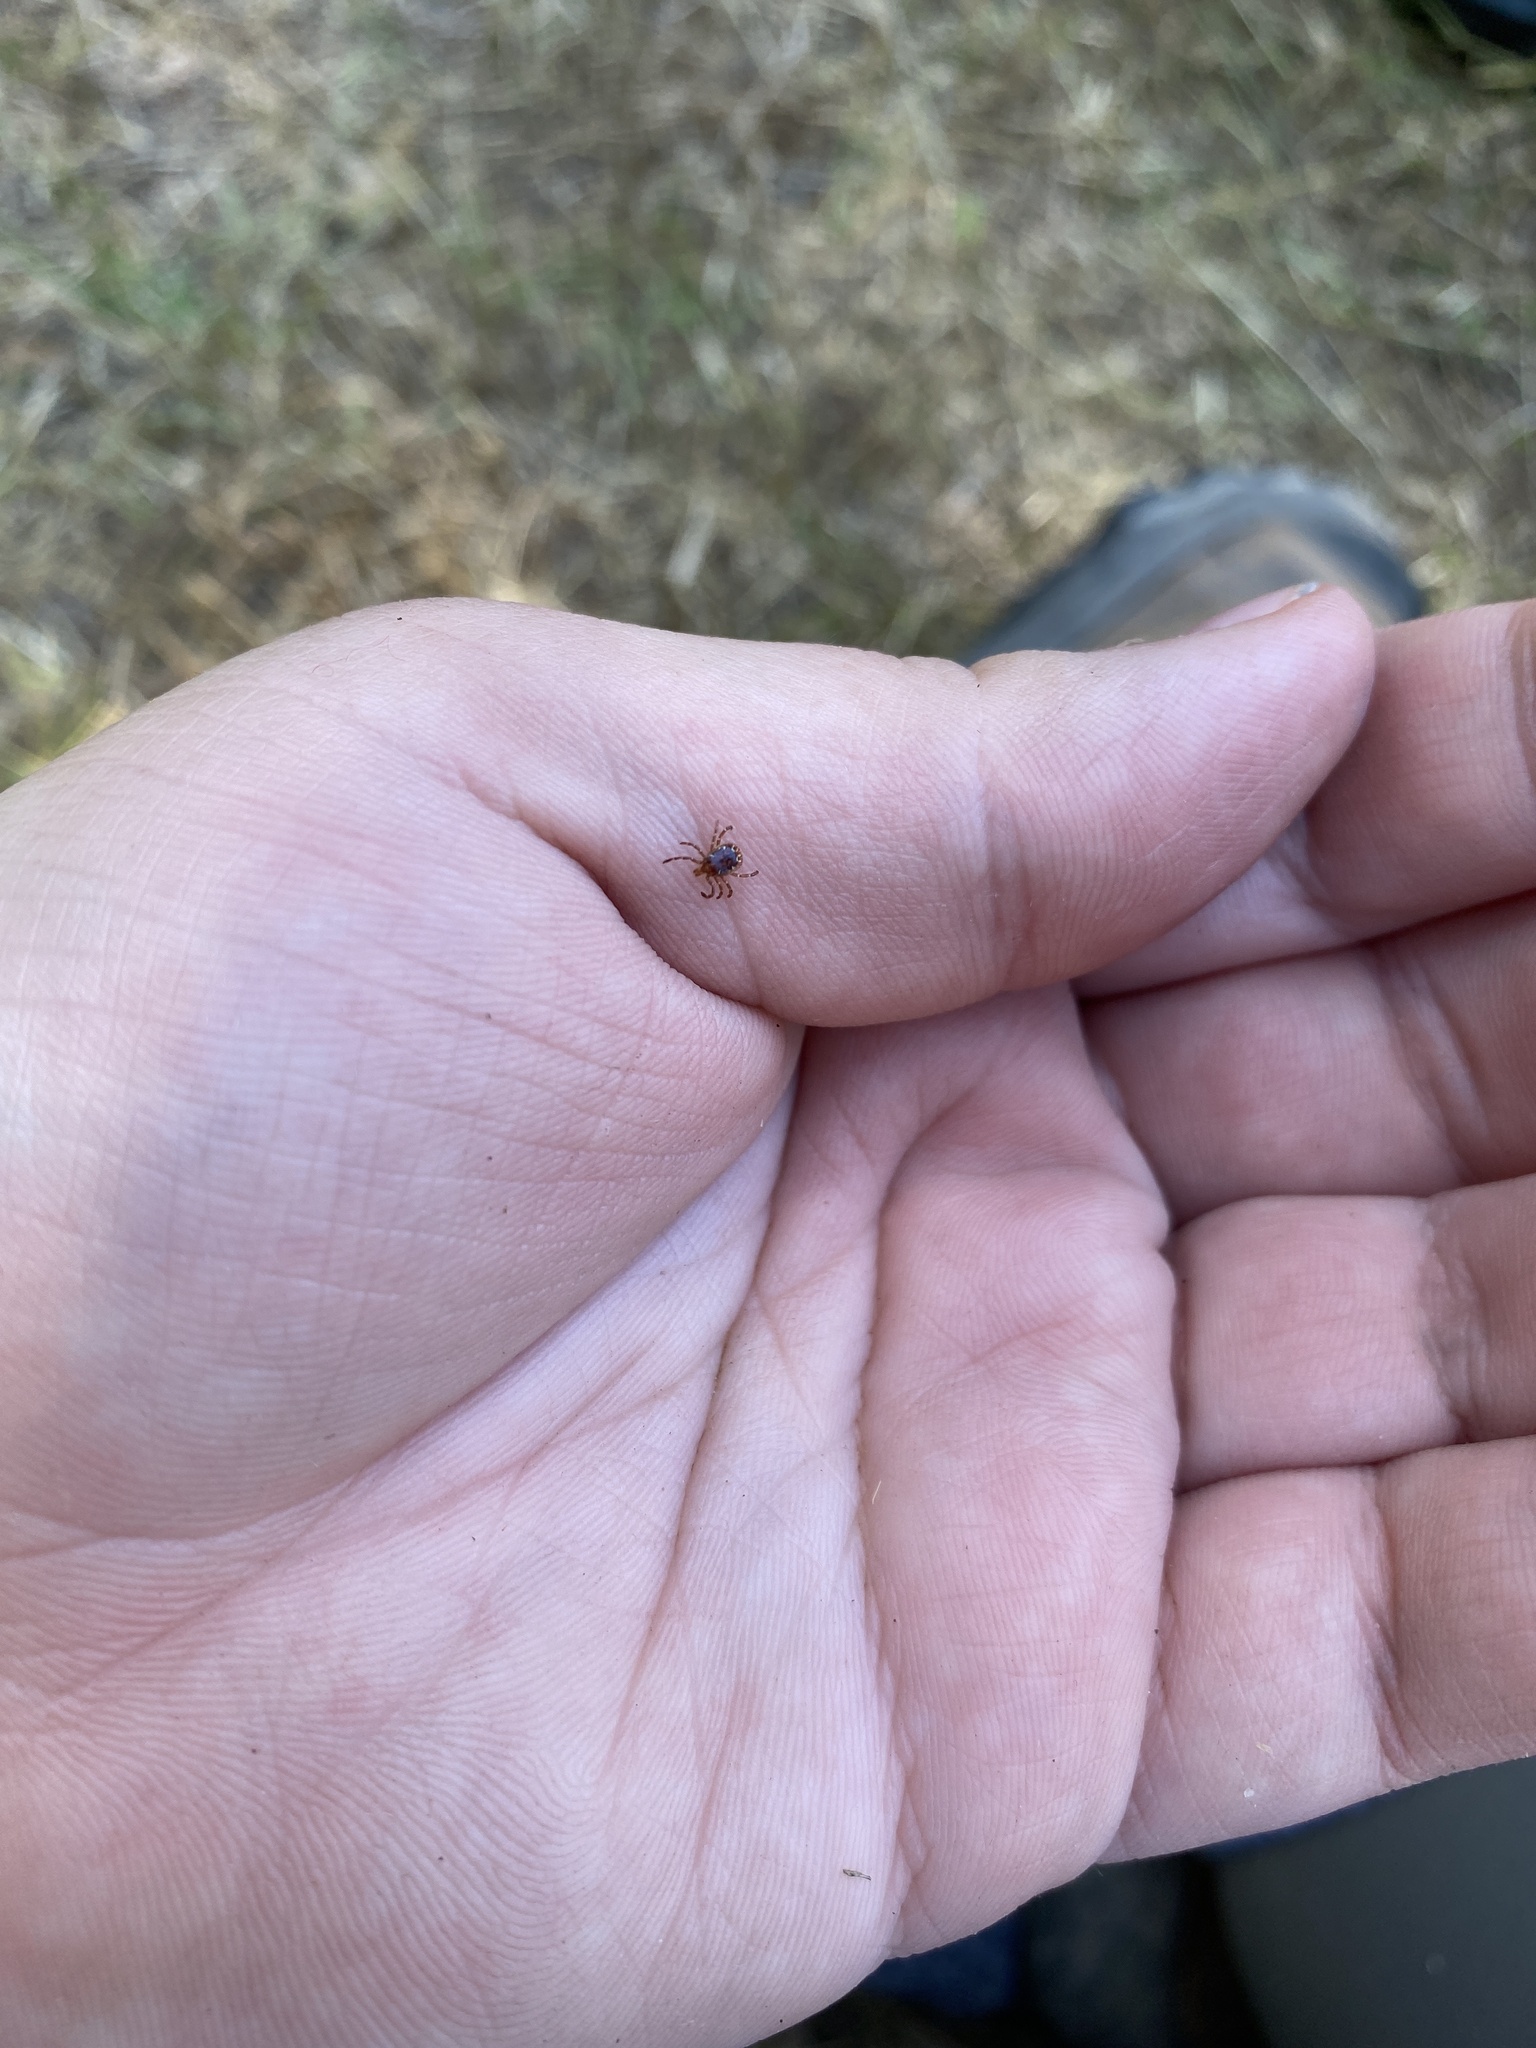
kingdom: Animalia
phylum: Arthropoda
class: Arachnida
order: Ixodida
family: Ixodidae
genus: Amblyomma
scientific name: Amblyomma americanum
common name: Lone star tick
